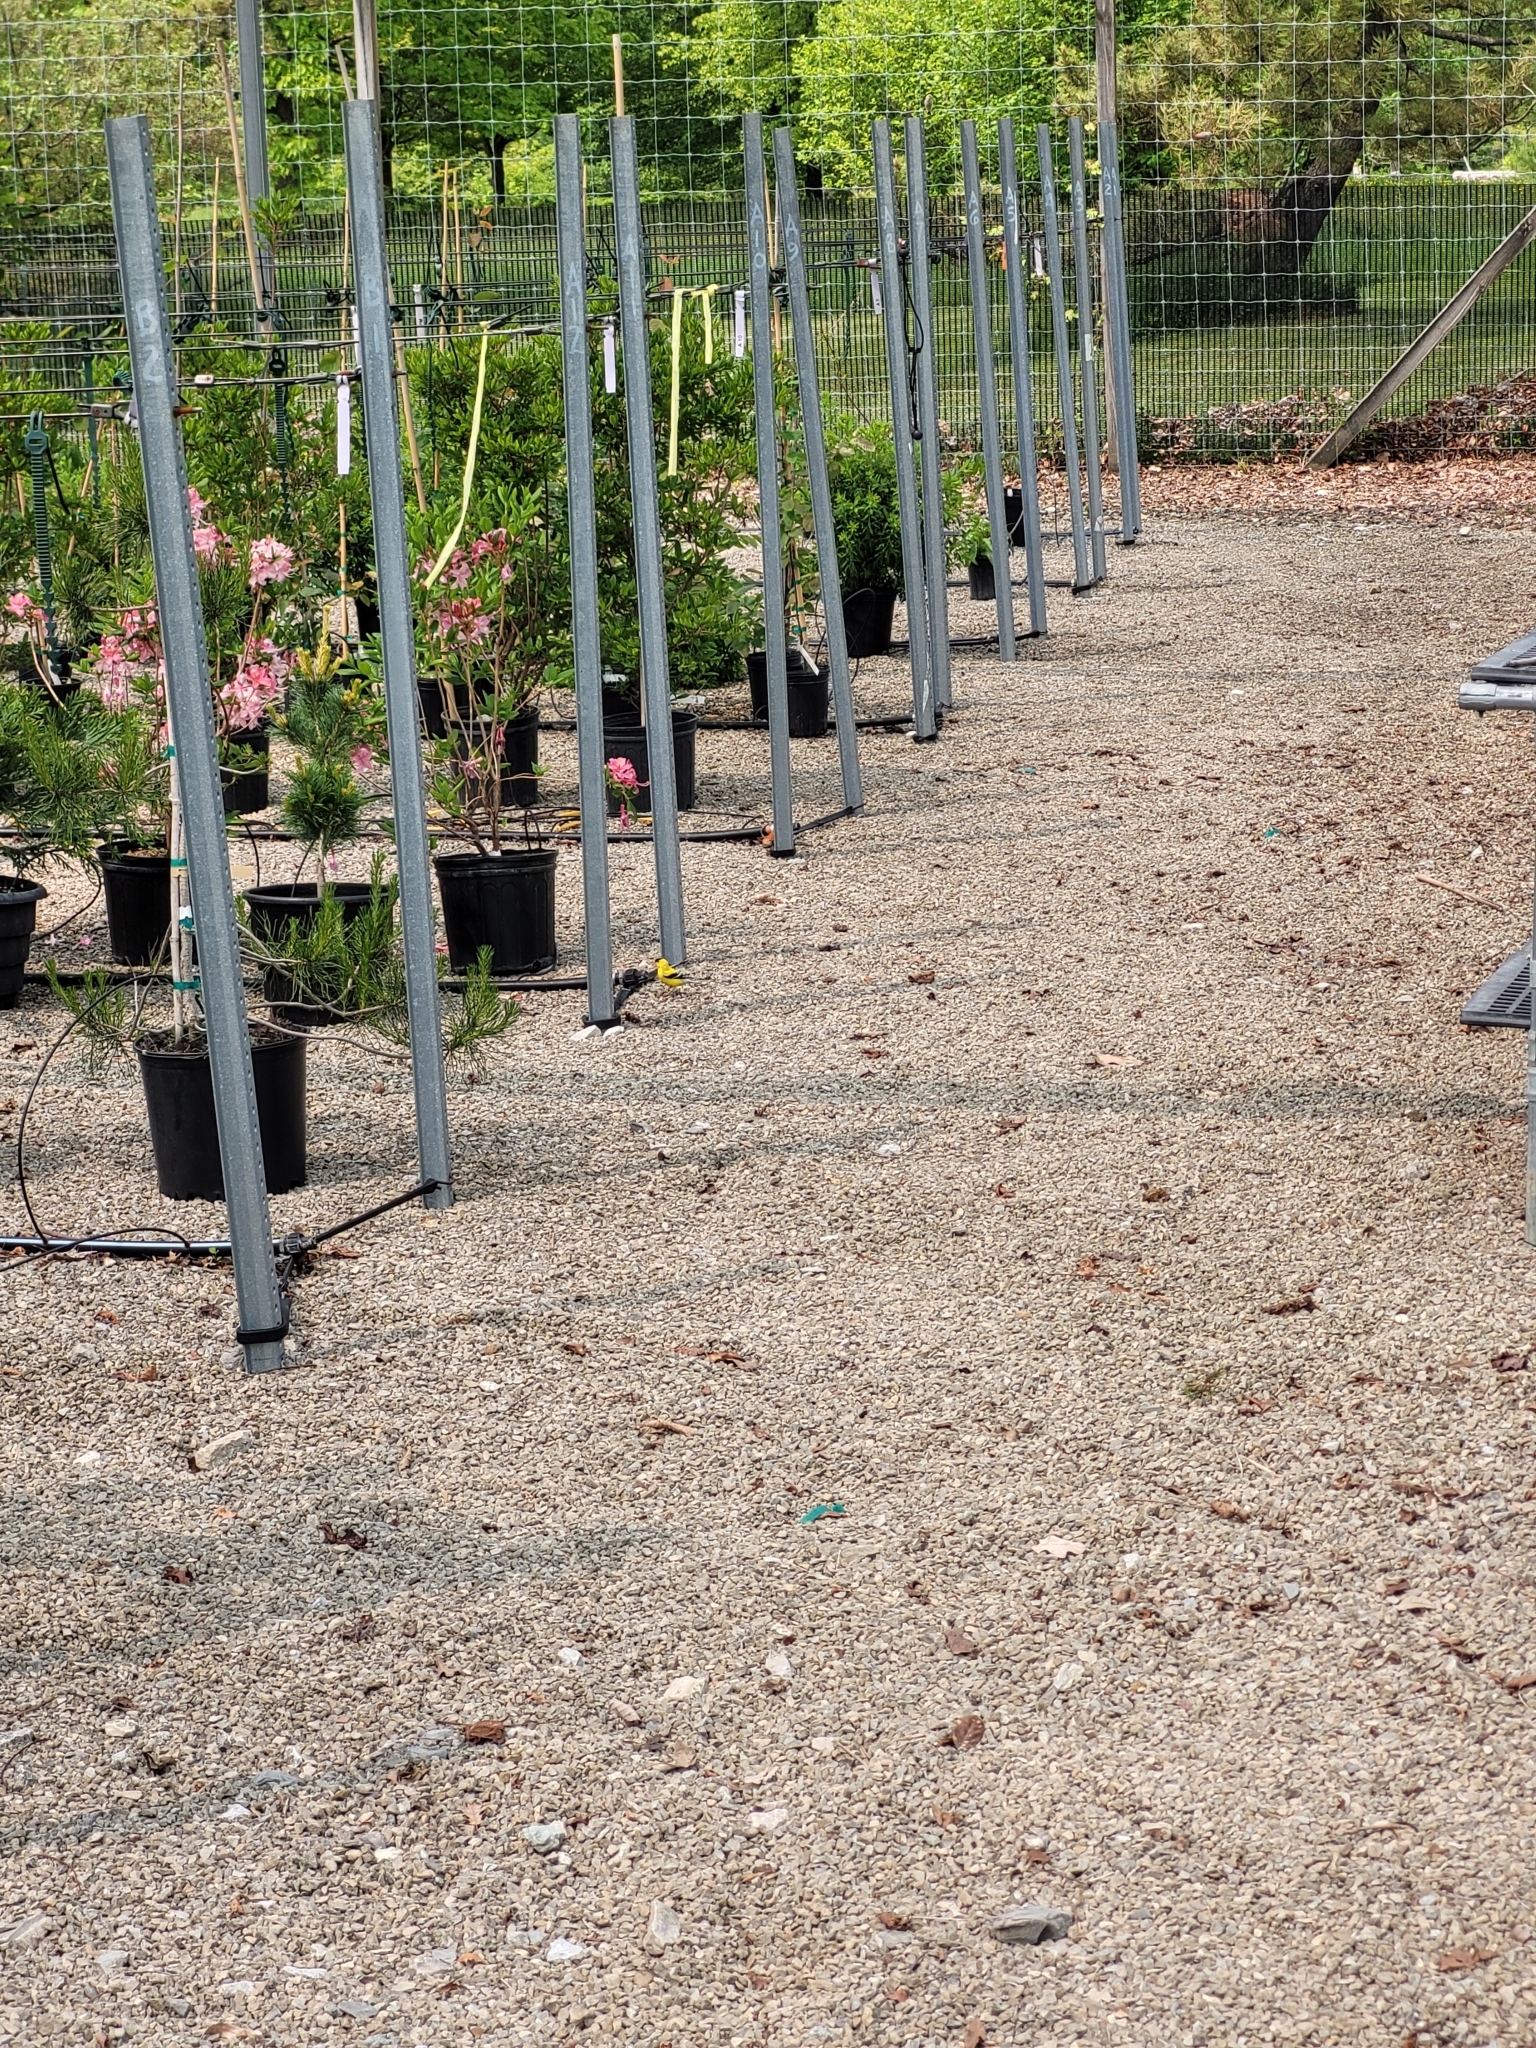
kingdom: Animalia
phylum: Chordata
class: Aves
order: Passeriformes
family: Fringillidae
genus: Spinus
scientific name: Spinus tristis
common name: American goldfinch
